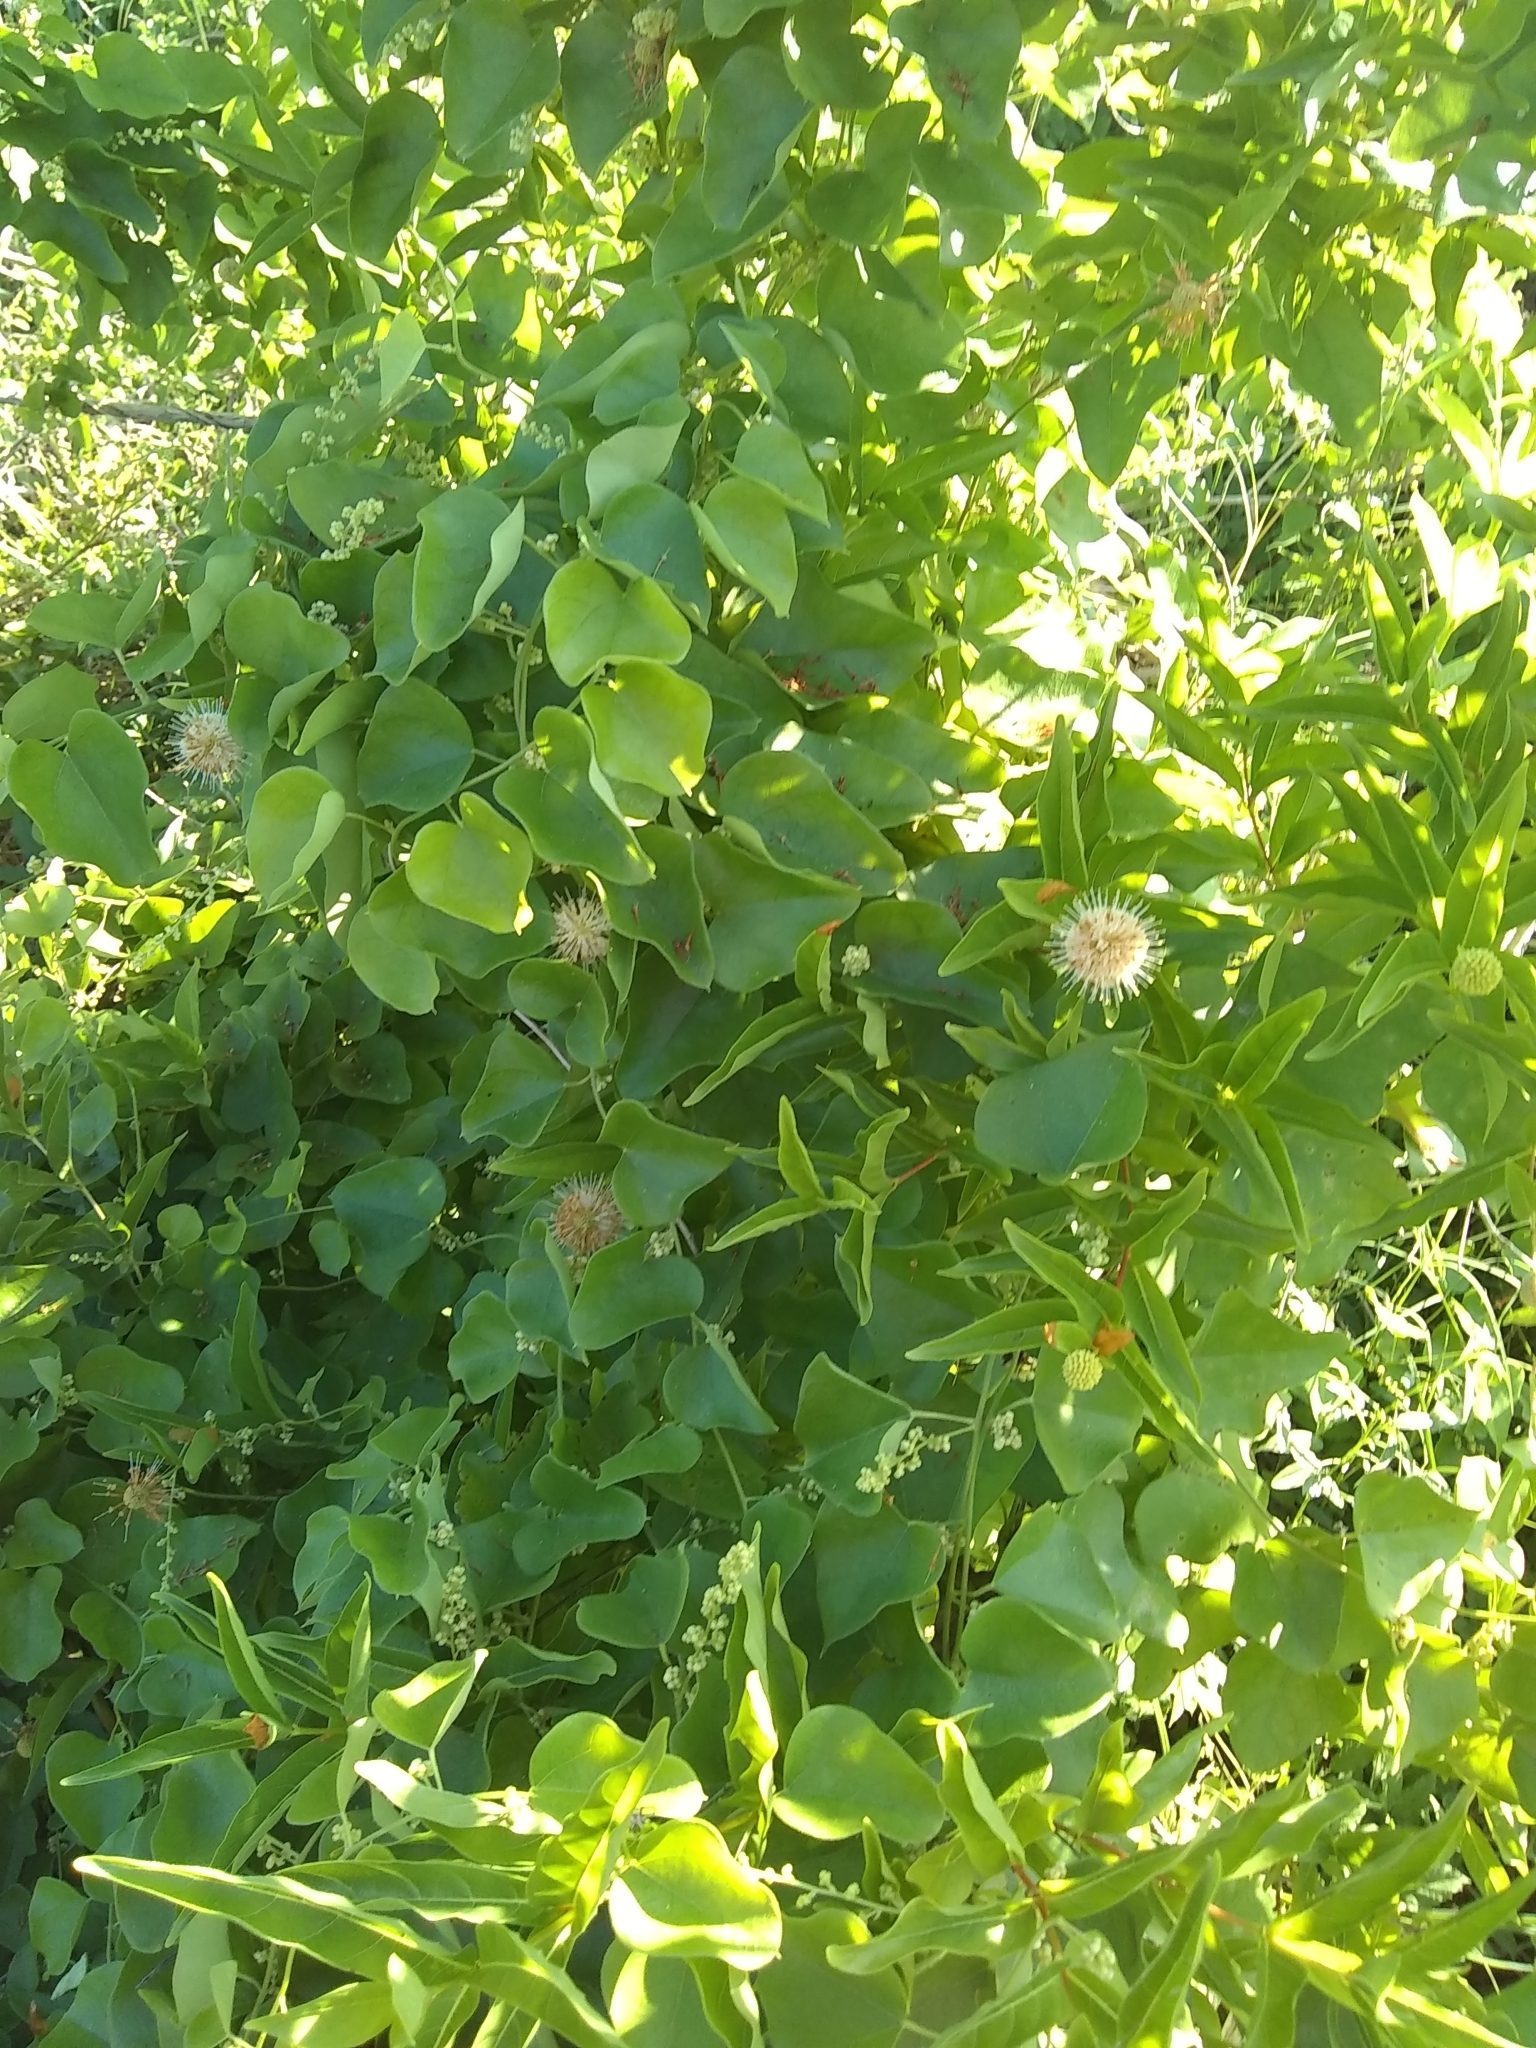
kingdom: Plantae
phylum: Tracheophyta
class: Magnoliopsida
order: Gentianales
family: Rubiaceae
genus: Cephalanthus
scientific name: Cephalanthus occidentalis
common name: Button-willow
